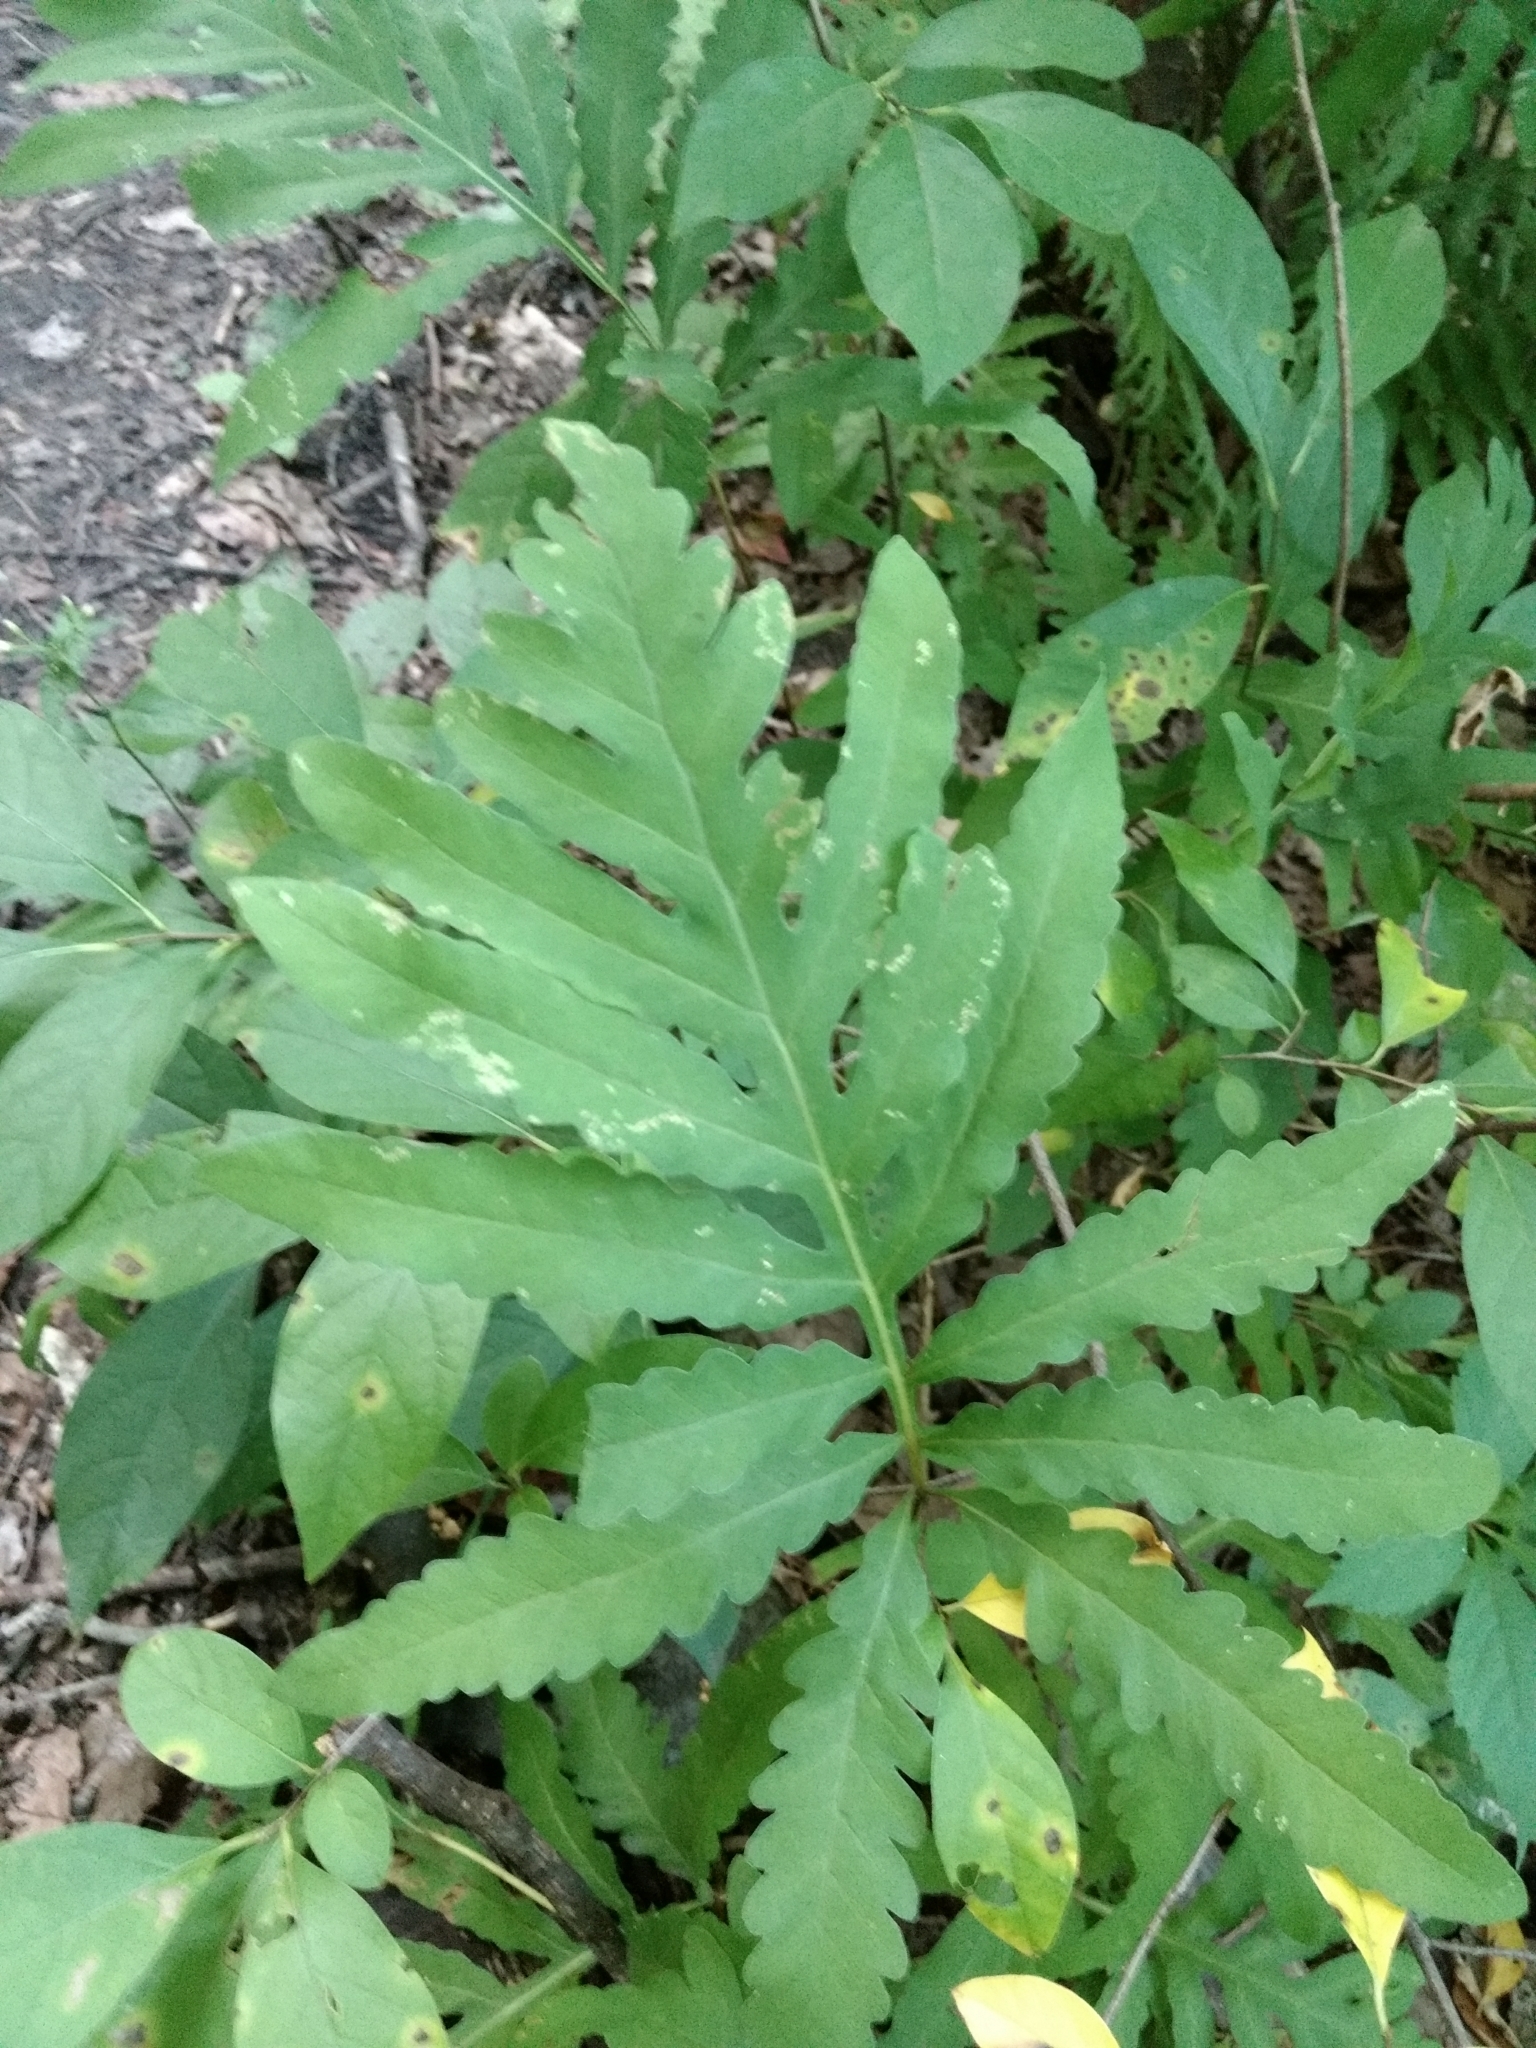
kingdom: Plantae
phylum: Tracheophyta
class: Polypodiopsida
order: Polypodiales
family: Onocleaceae
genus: Onoclea
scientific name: Onoclea sensibilis
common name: Sensitive fern
